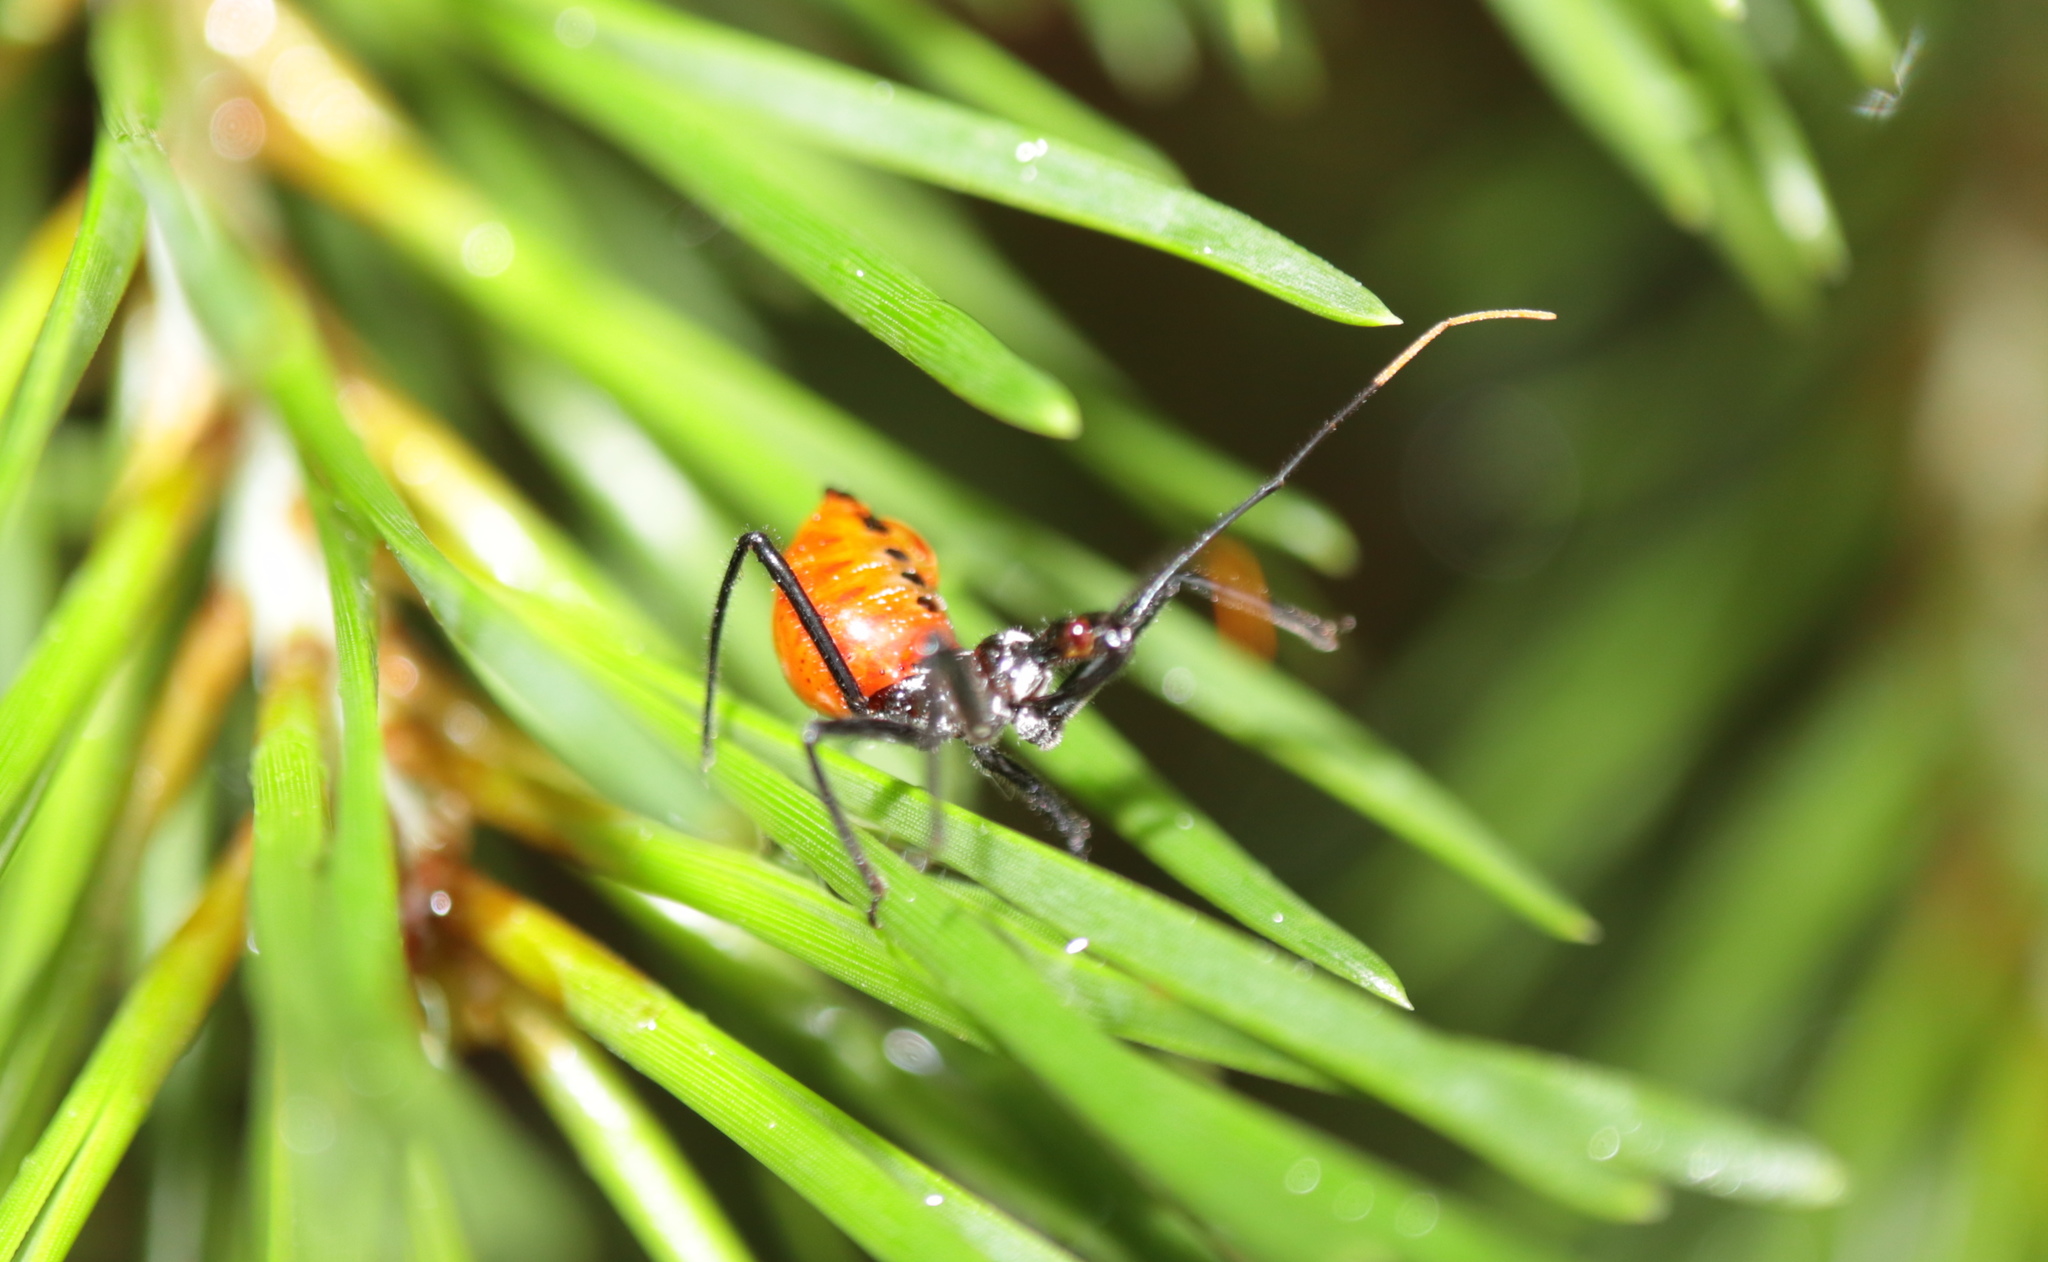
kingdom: Animalia
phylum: Arthropoda
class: Insecta
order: Hemiptera
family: Reduviidae
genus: Arilus
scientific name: Arilus cristatus
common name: North american wheel bug
